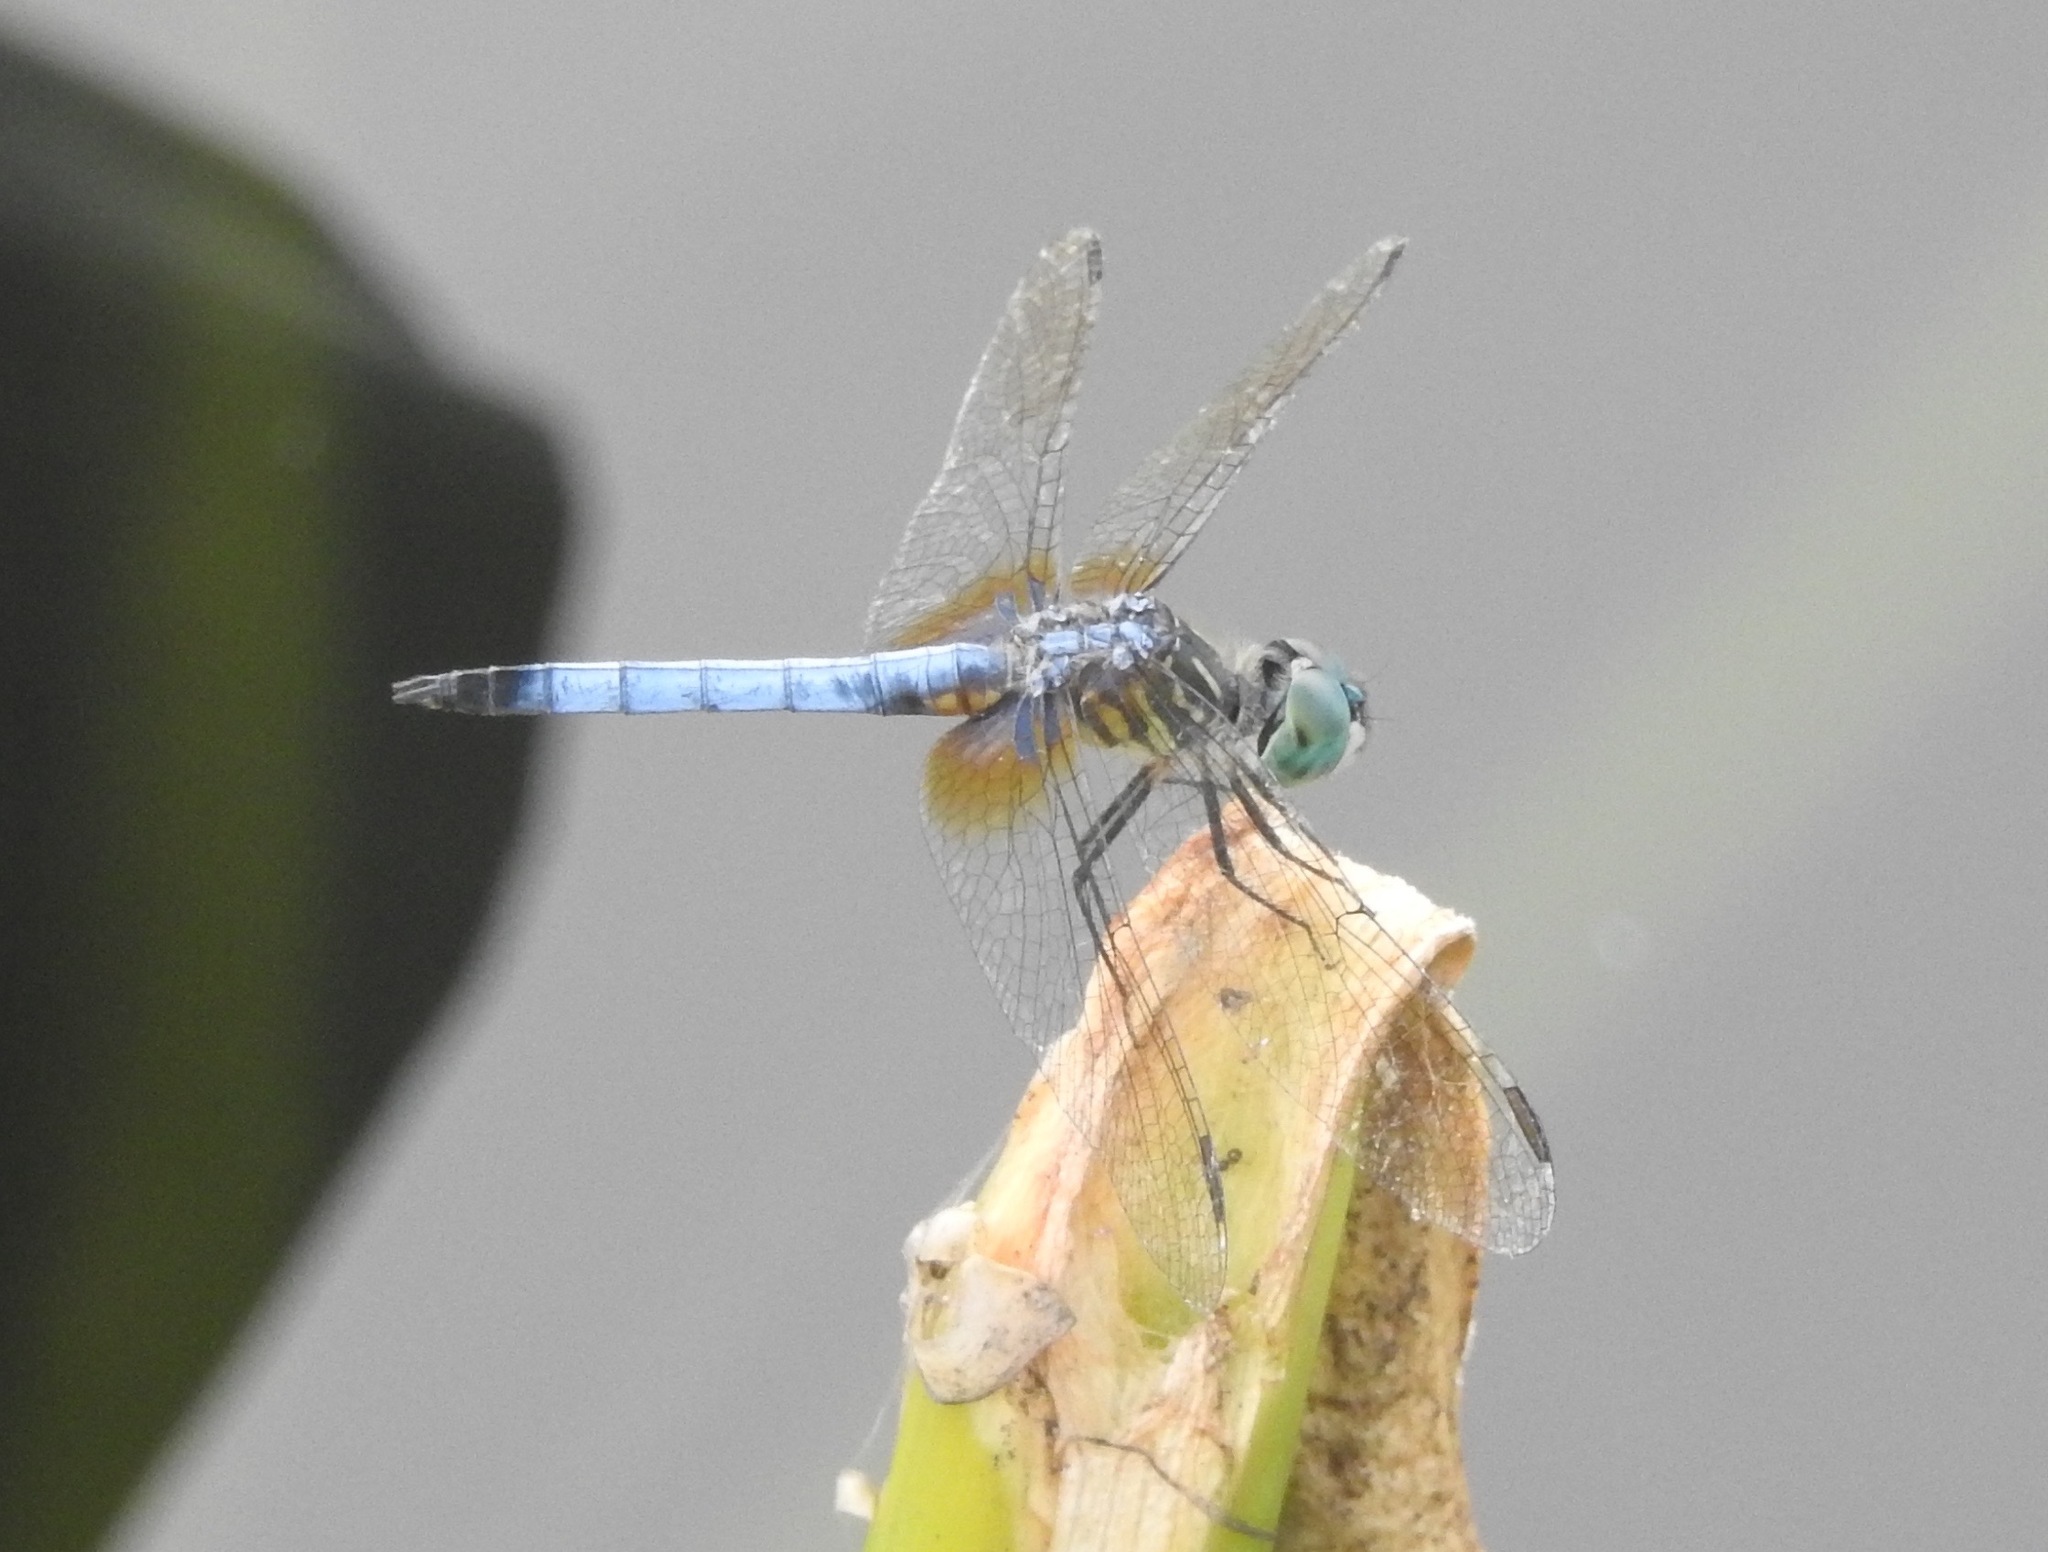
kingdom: Animalia
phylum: Arthropoda
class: Insecta
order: Odonata
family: Libellulidae
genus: Pachydiplax
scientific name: Pachydiplax longipennis
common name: Blue dasher
